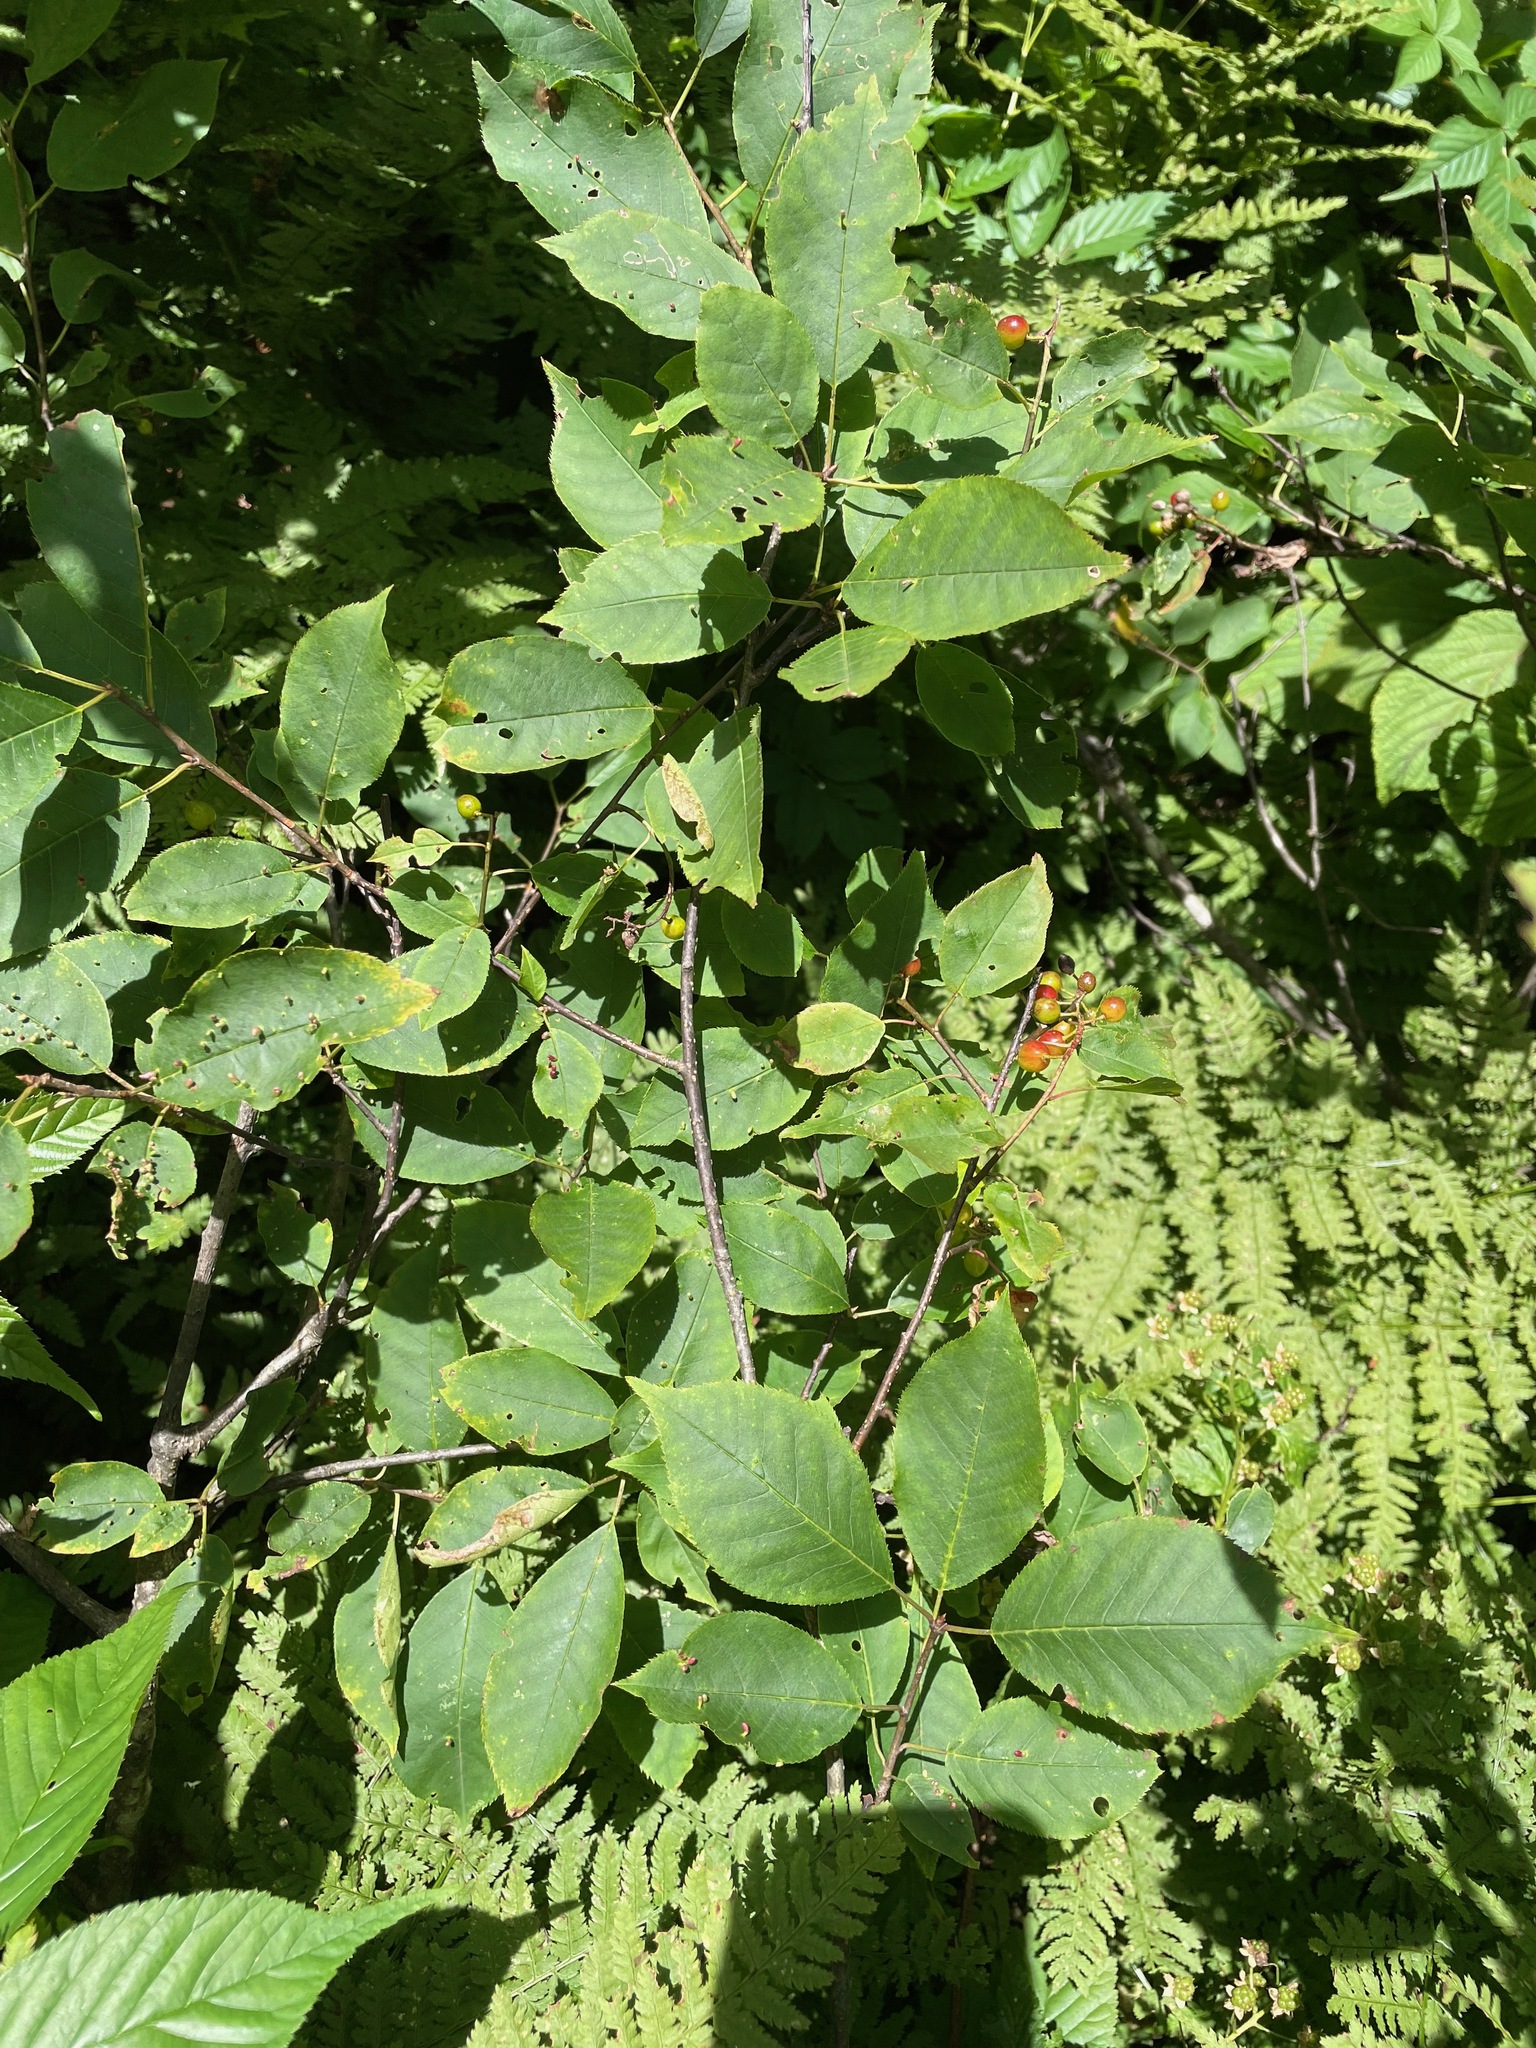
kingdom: Plantae
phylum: Tracheophyta
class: Magnoliopsida
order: Rosales
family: Rosaceae
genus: Prunus
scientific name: Prunus virginiana
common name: Chokecherry
